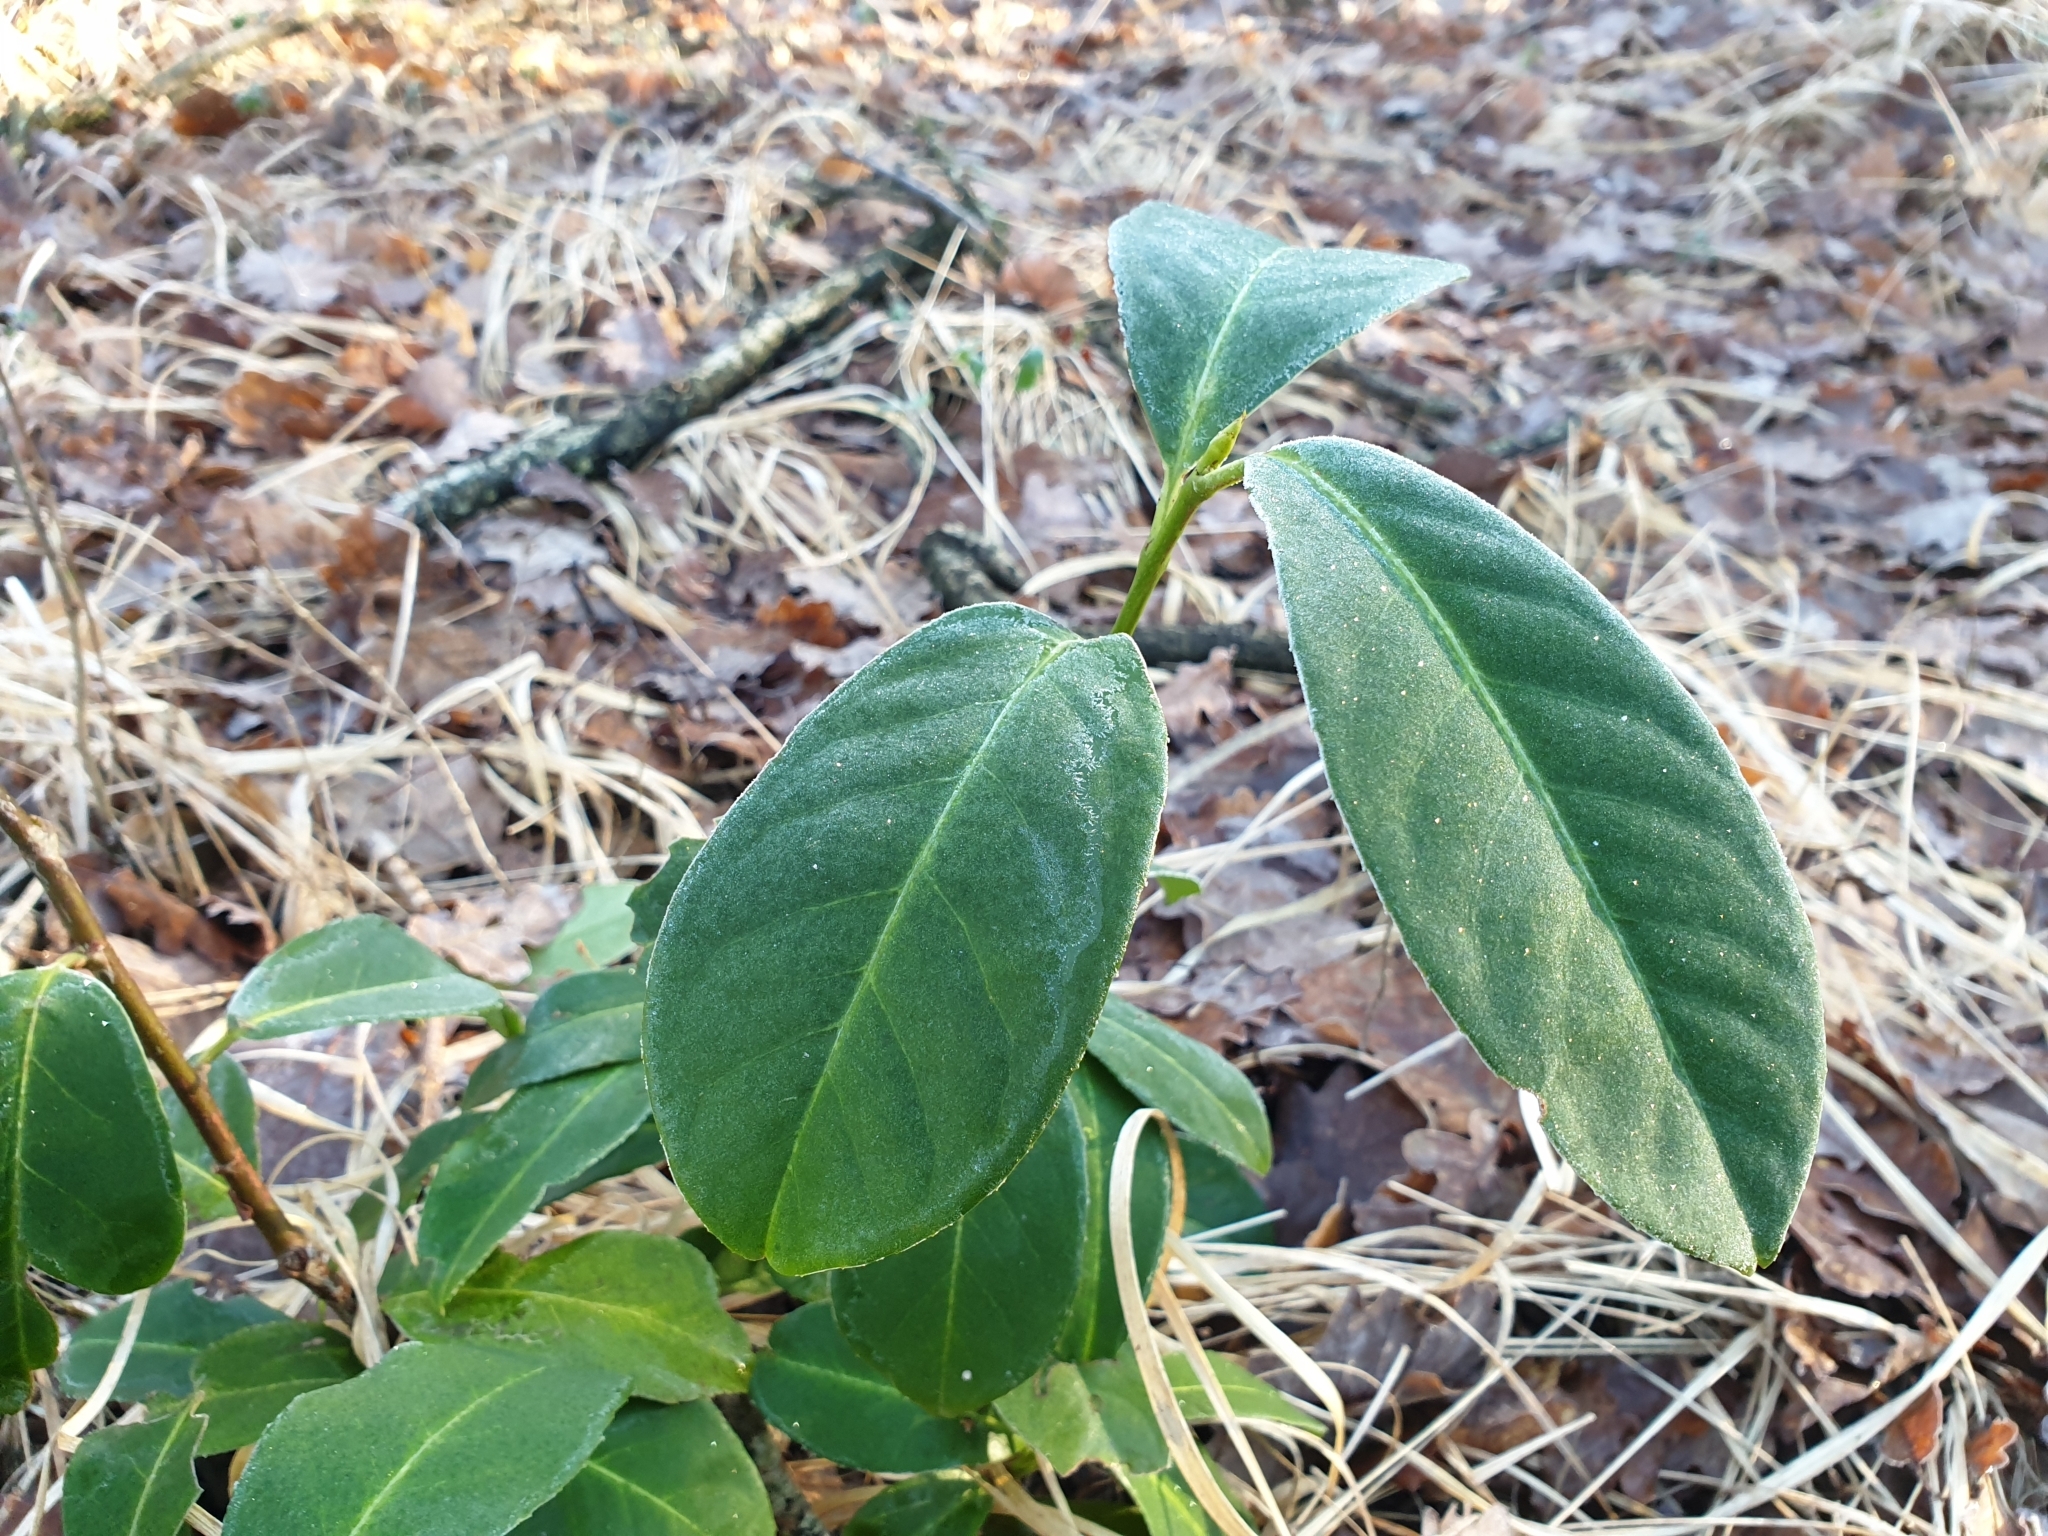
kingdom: Plantae
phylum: Tracheophyta
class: Magnoliopsida
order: Rosales
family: Rosaceae
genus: Prunus
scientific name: Prunus laurocerasus
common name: Cherry laurel
